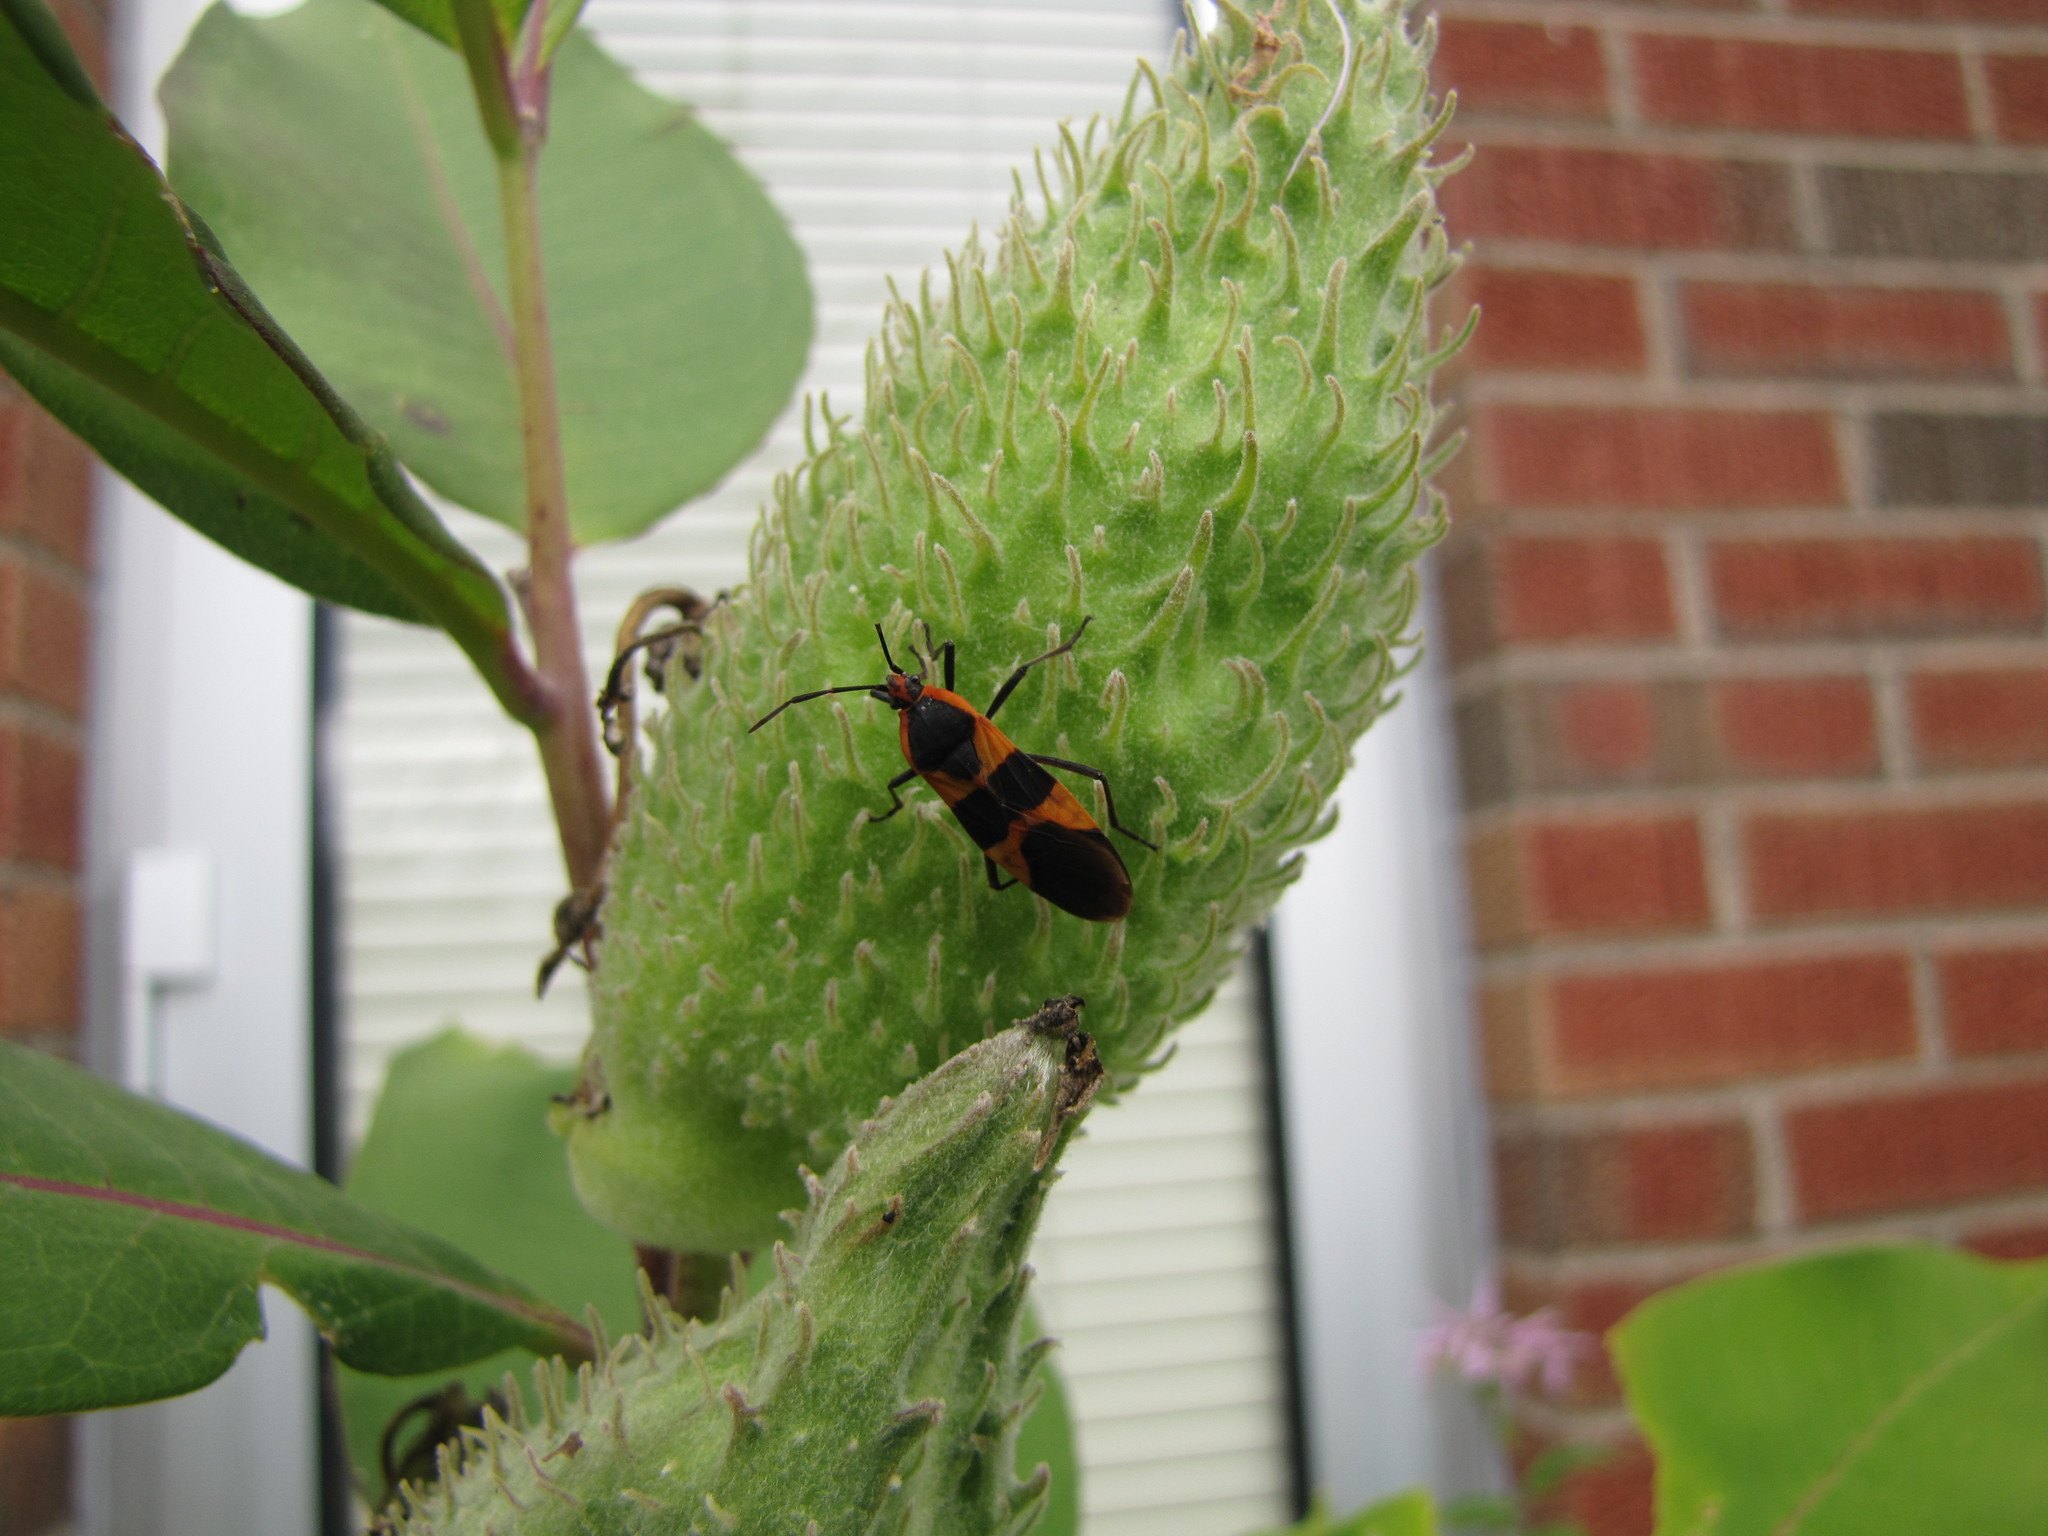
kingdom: Animalia
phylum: Arthropoda
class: Insecta
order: Hemiptera
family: Lygaeidae
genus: Oncopeltus
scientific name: Oncopeltus fasciatus
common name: Large milkweed bug
